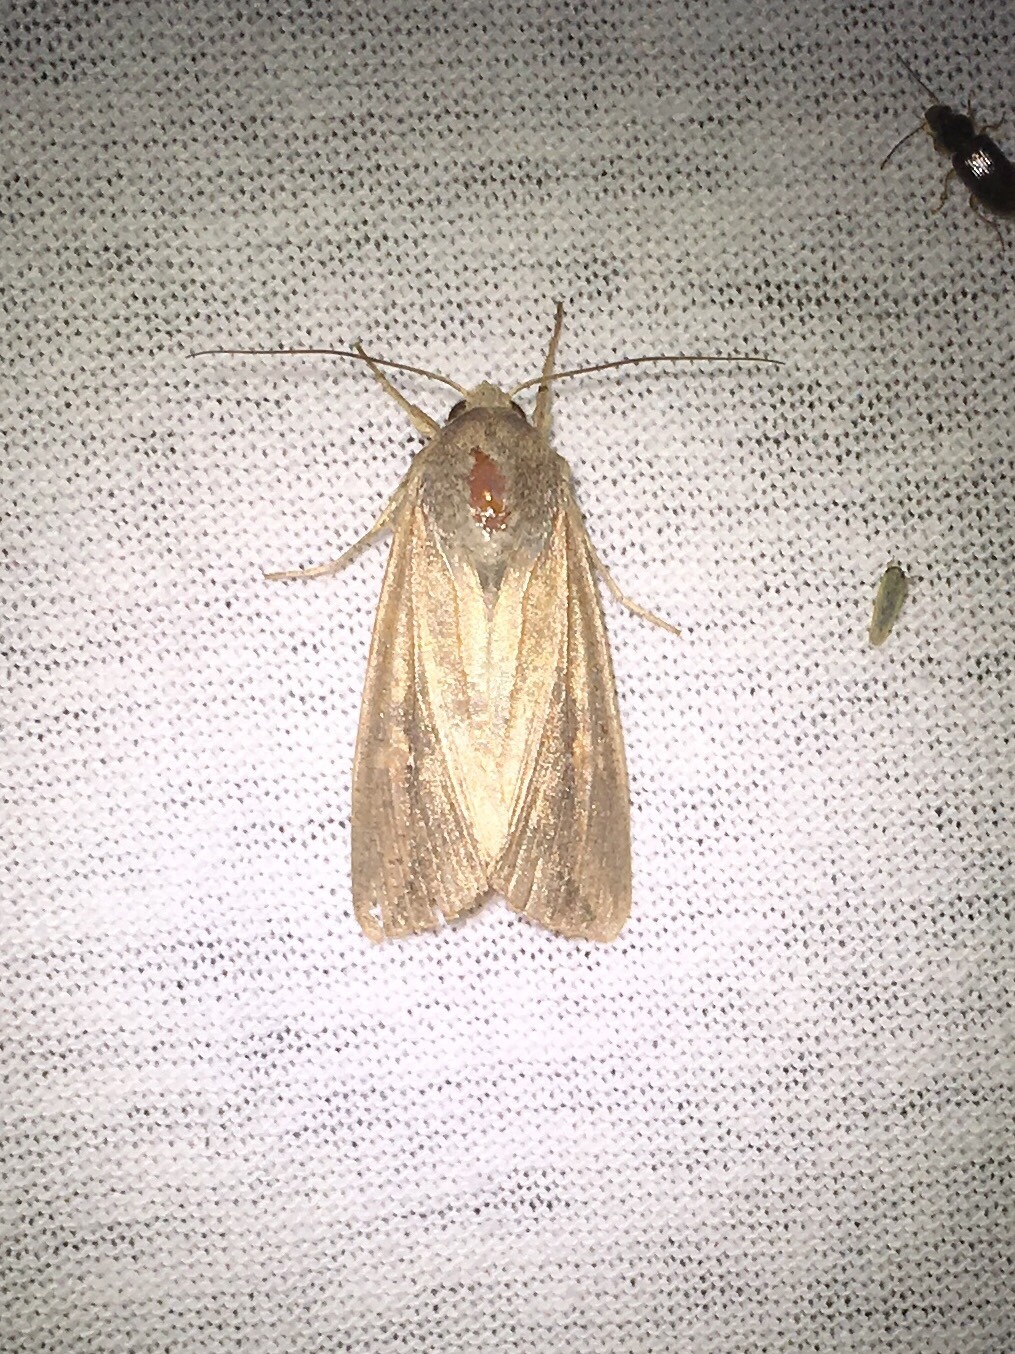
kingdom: Animalia
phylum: Arthropoda
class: Insecta
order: Lepidoptera
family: Noctuidae
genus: Mythimna
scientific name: Mythimna unipuncta
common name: White-speck
